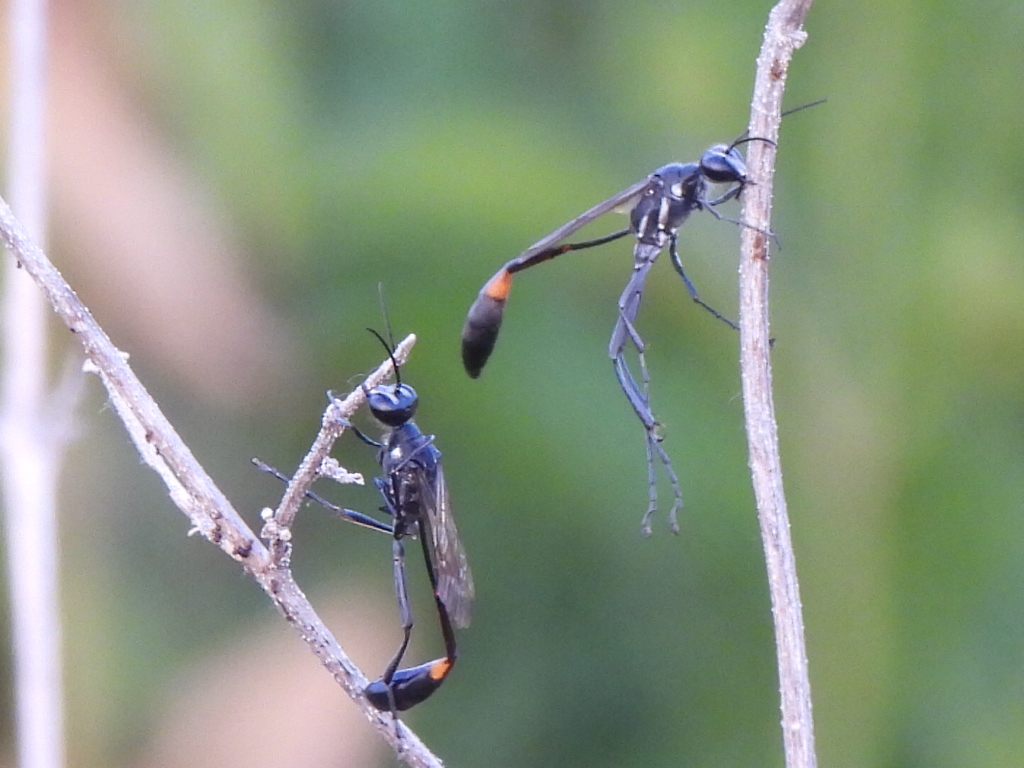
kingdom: Animalia
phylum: Arthropoda
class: Insecta
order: Hymenoptera
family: Sphecidae
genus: Ammophila
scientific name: Ammophila procera
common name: Common thread-waisted wasp
